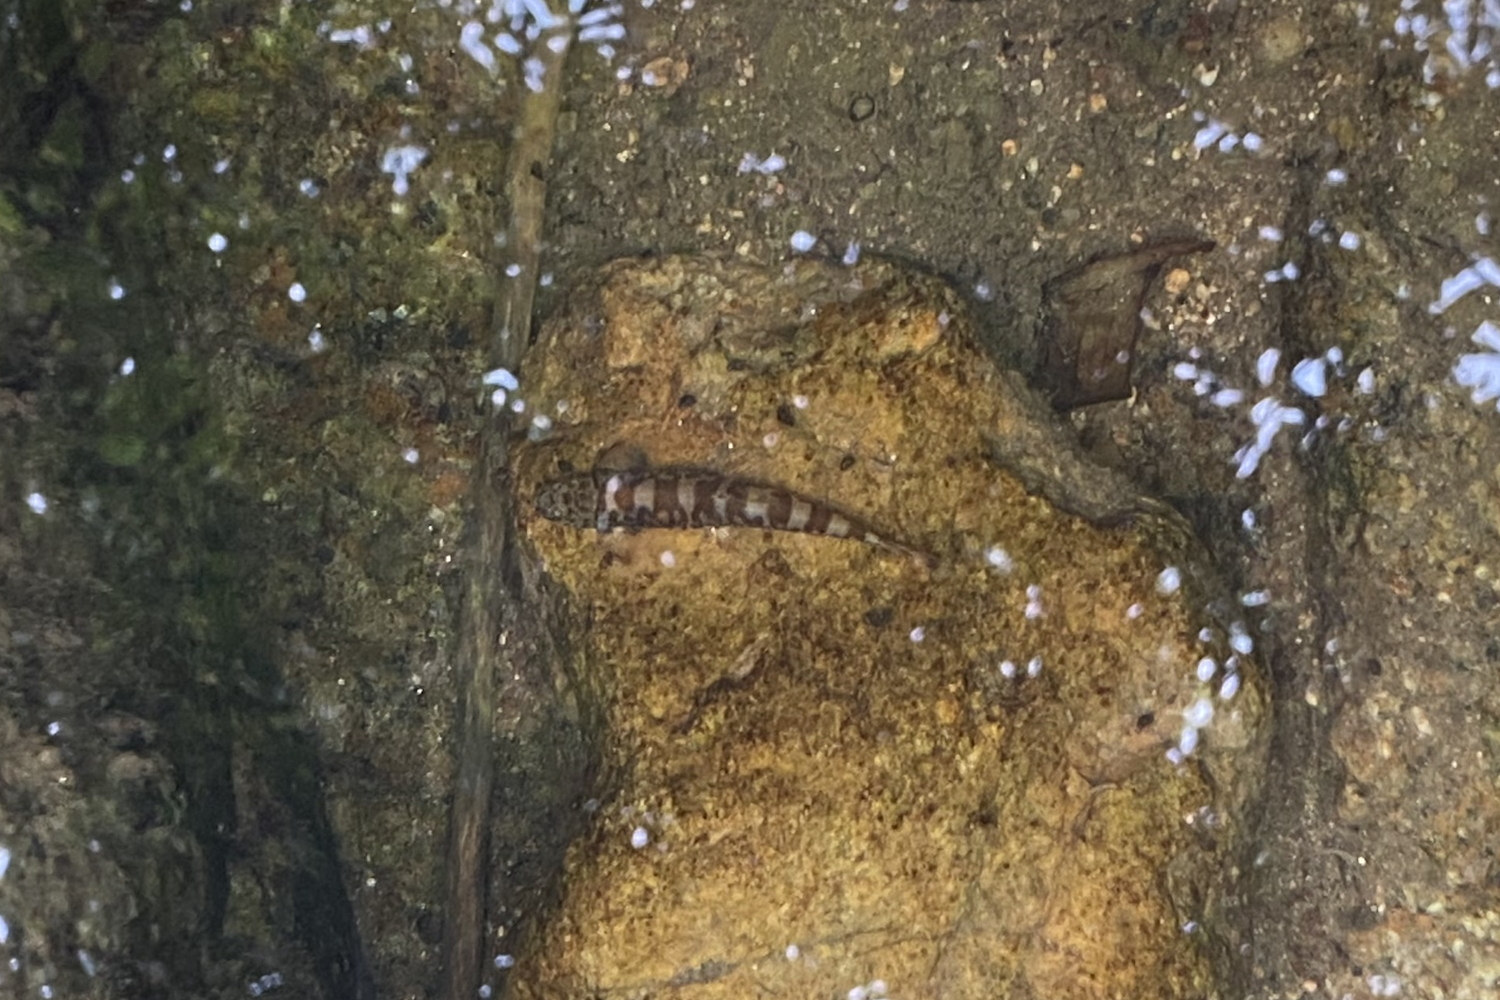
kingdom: Animalia
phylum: Chordata
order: Cypriniformes
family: Balitoridae
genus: Liniparhomaloptera
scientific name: Liniparhomaloptera disparis
